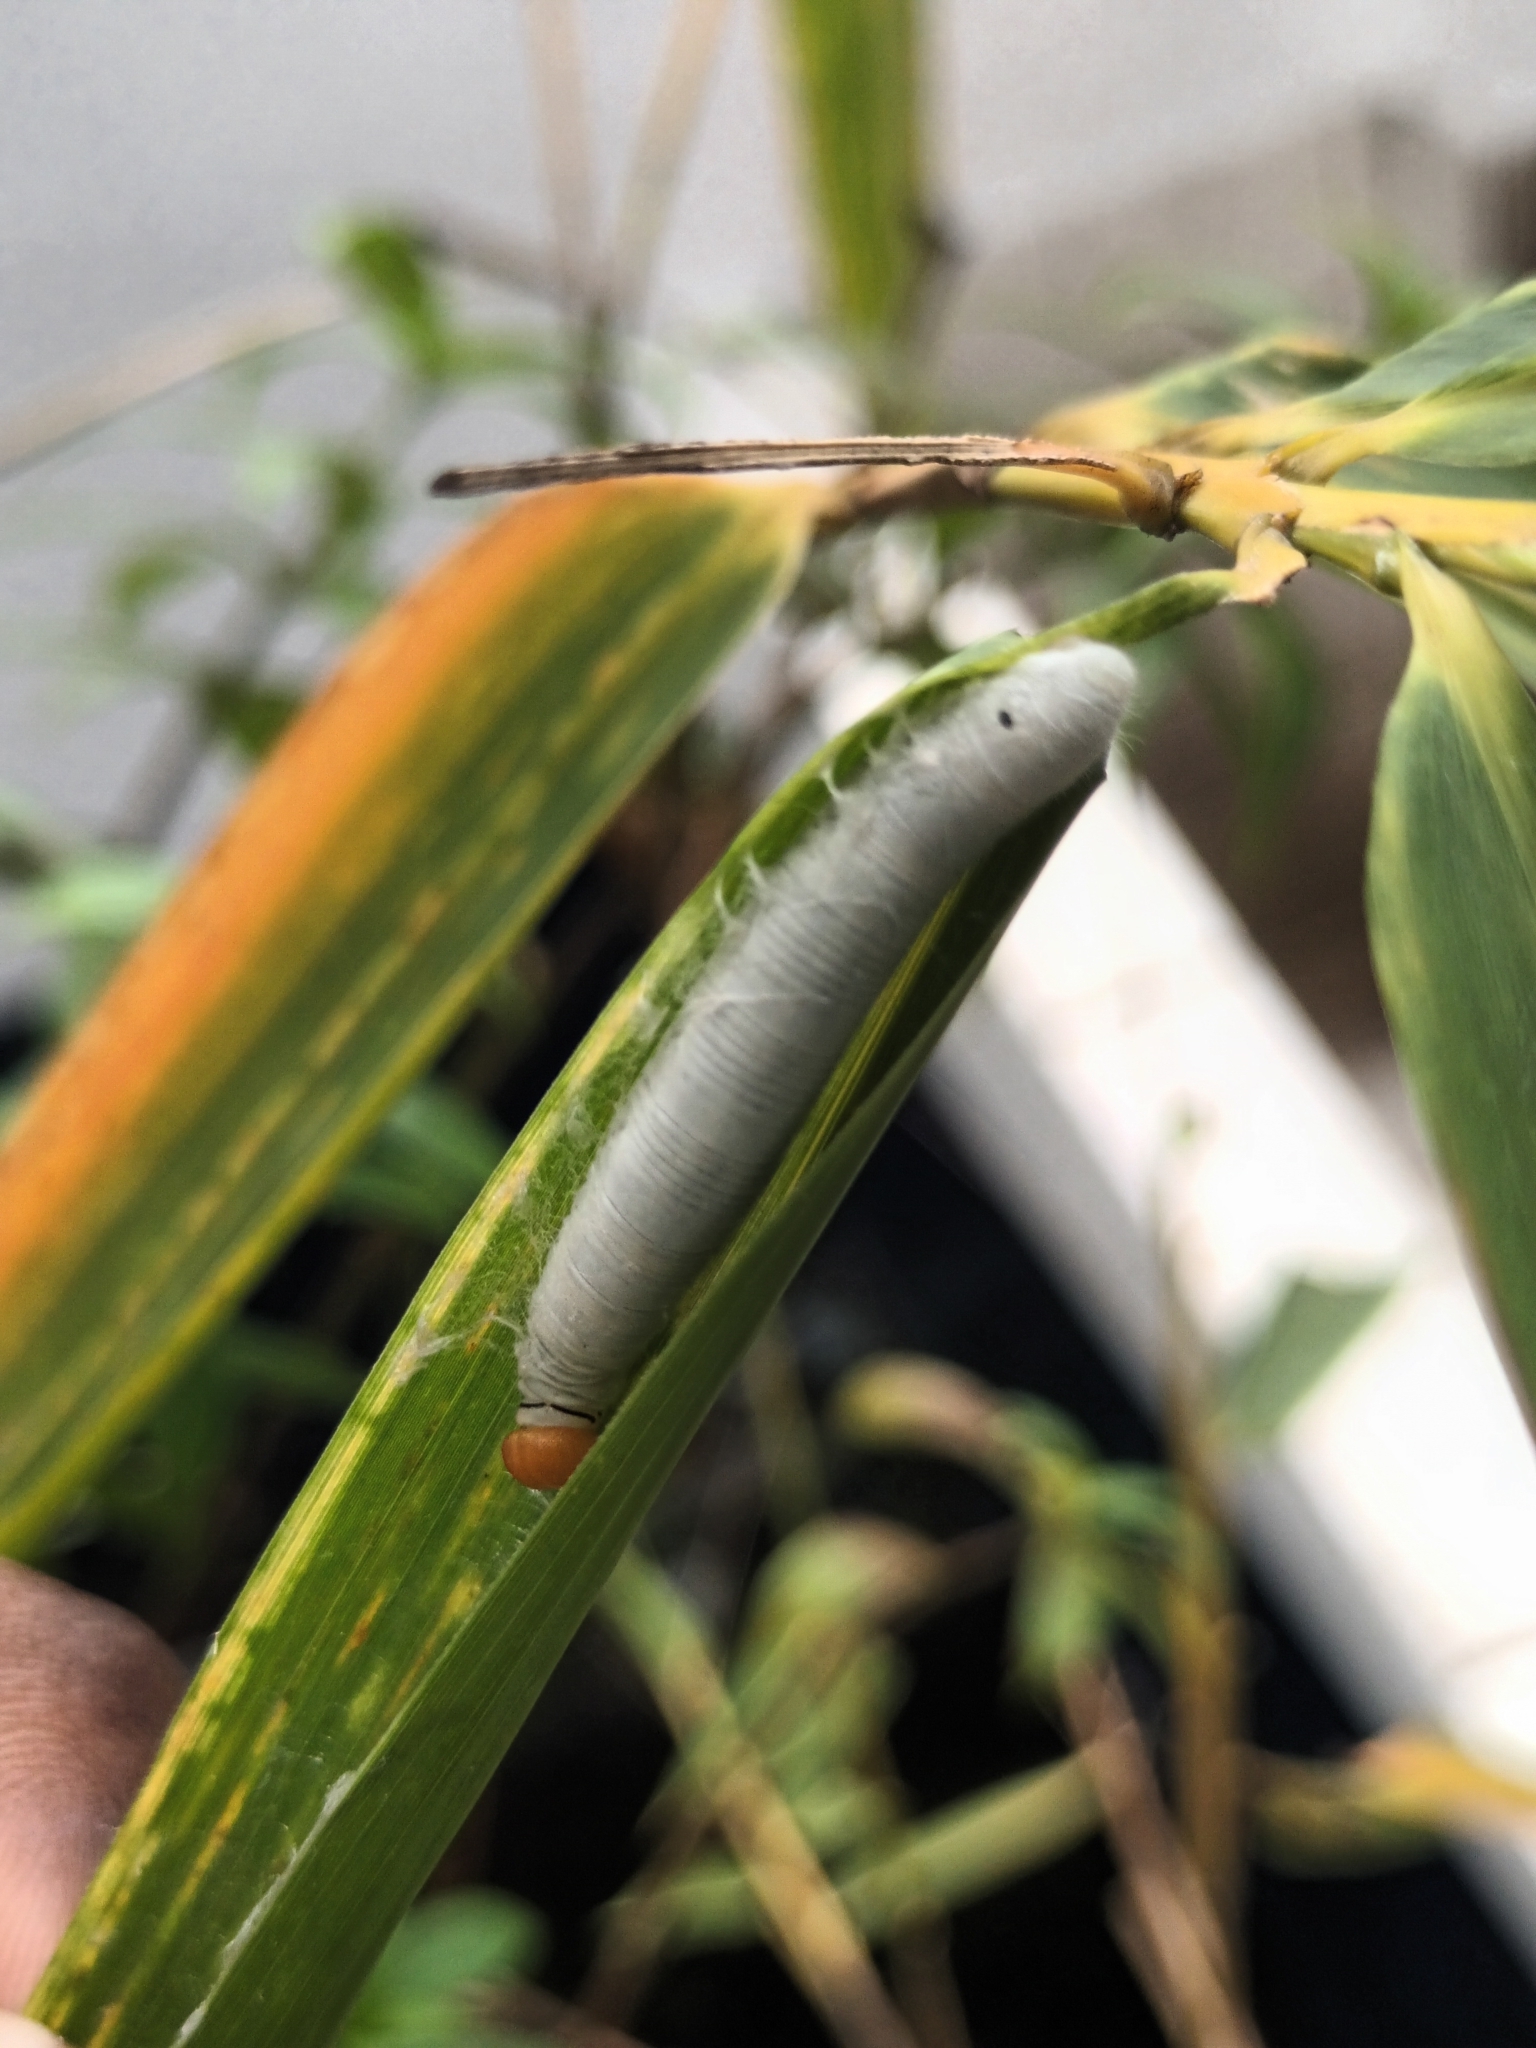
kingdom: Animalia
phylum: Arthropoda
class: Insecta
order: Lepidoptera
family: Hesperiidae
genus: Matapa
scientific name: Matapa aria
